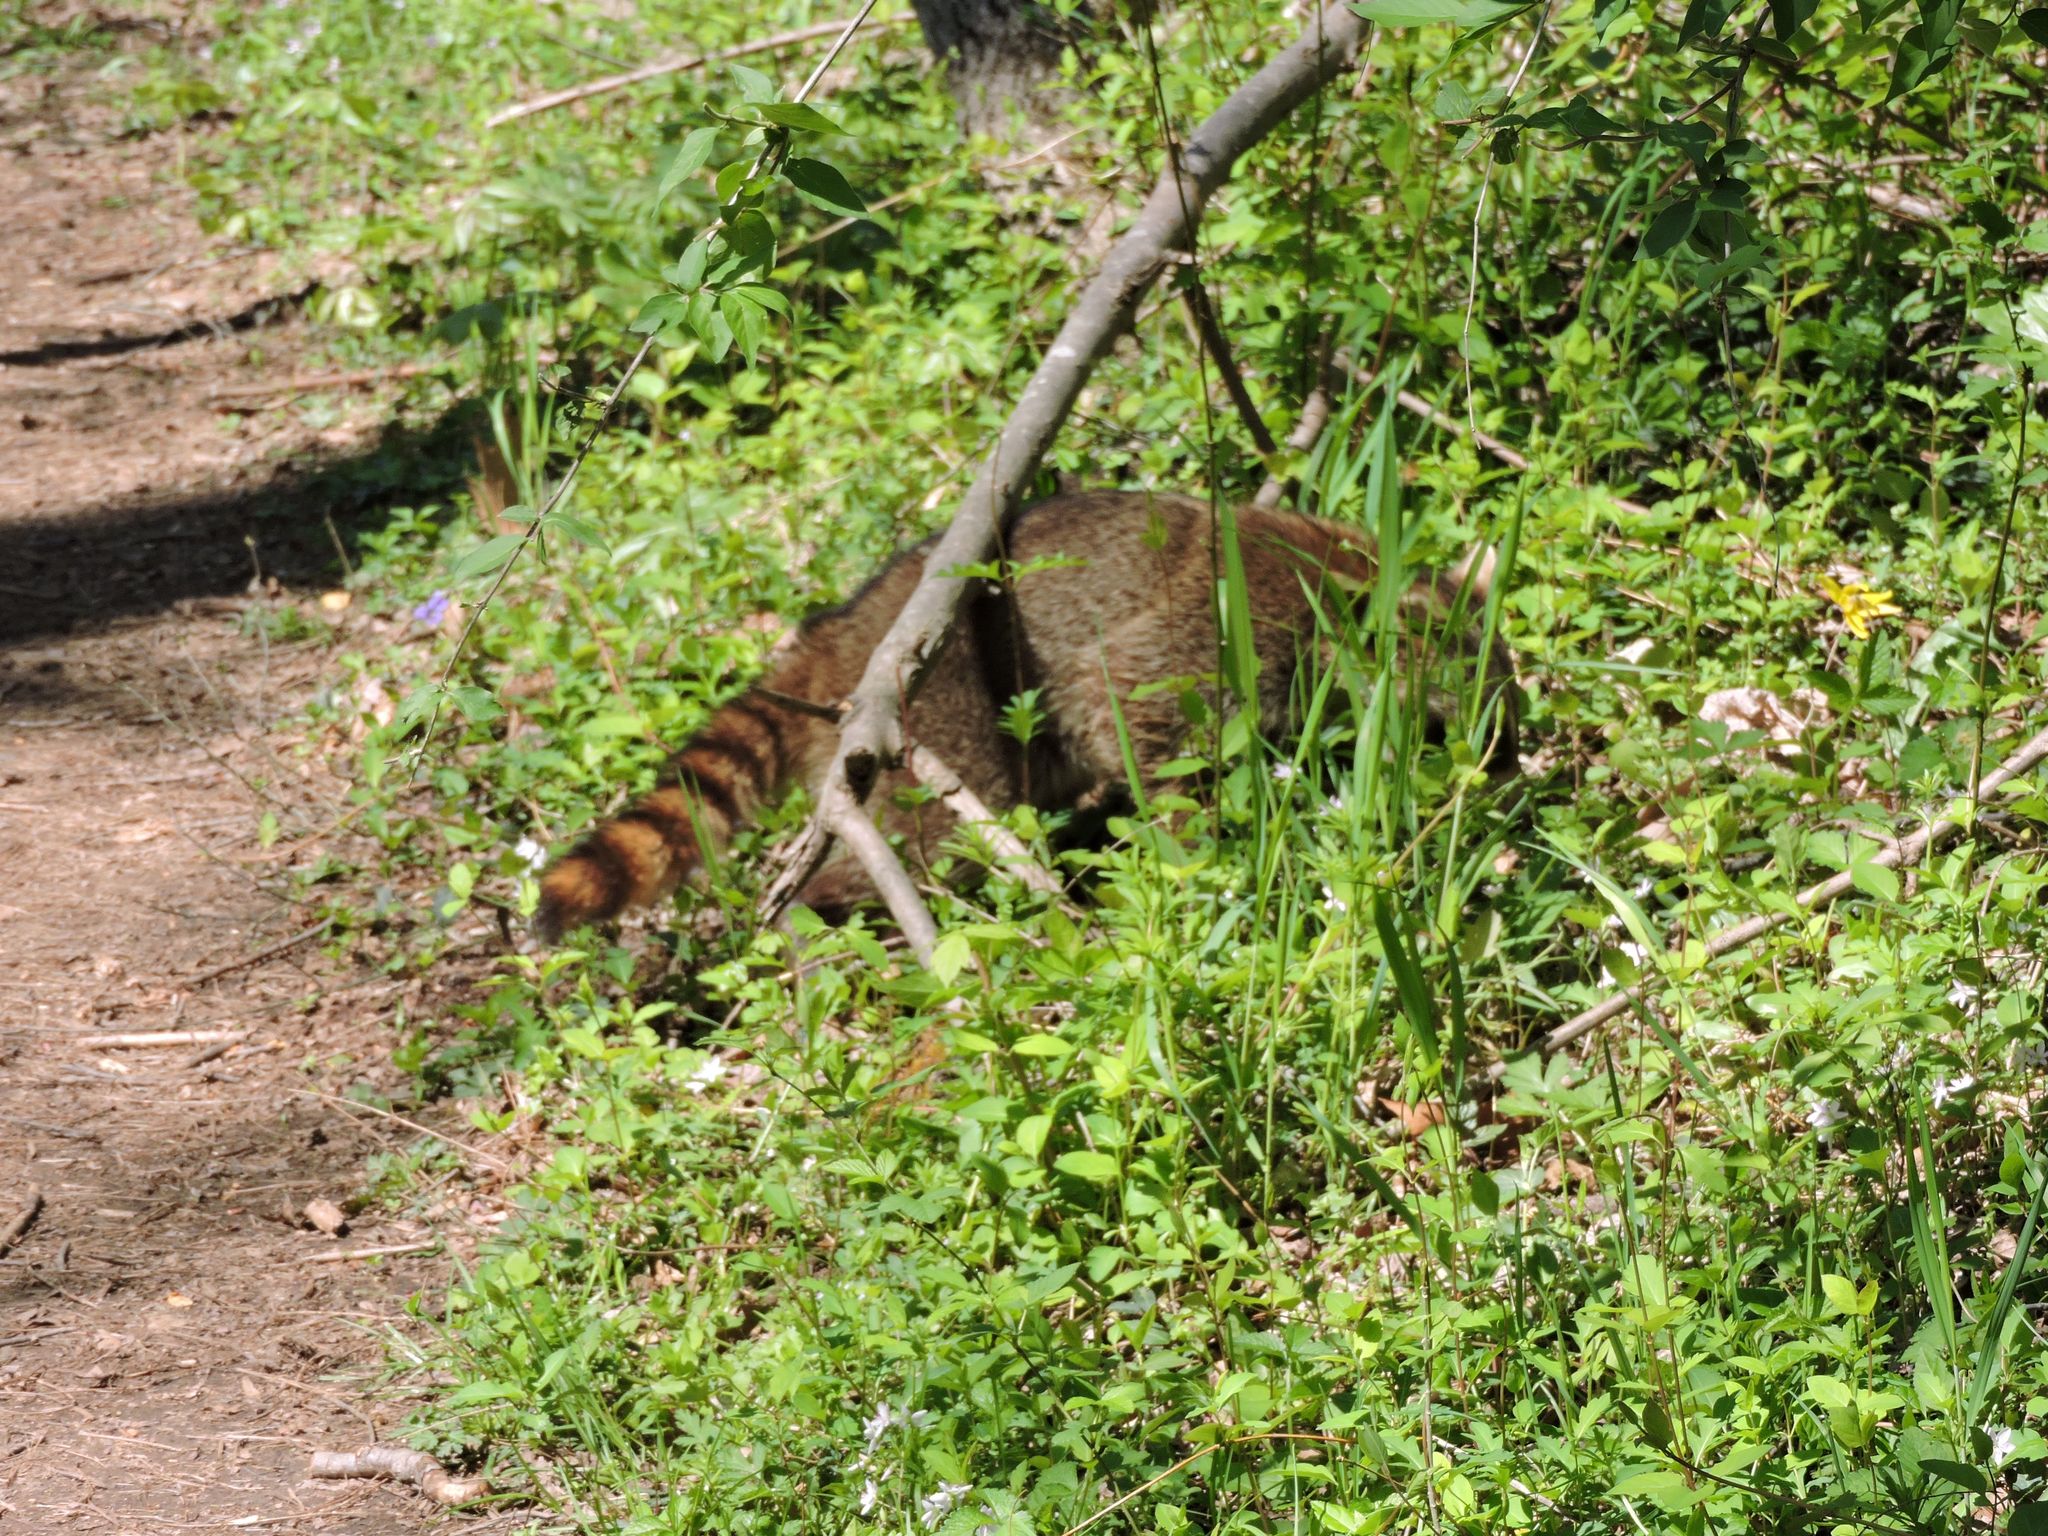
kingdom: Animalia
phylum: Chordata
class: Mammalia
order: Carnivora
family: Procyonidae
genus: Procyon
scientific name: Procyon lotor
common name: Raccoon
